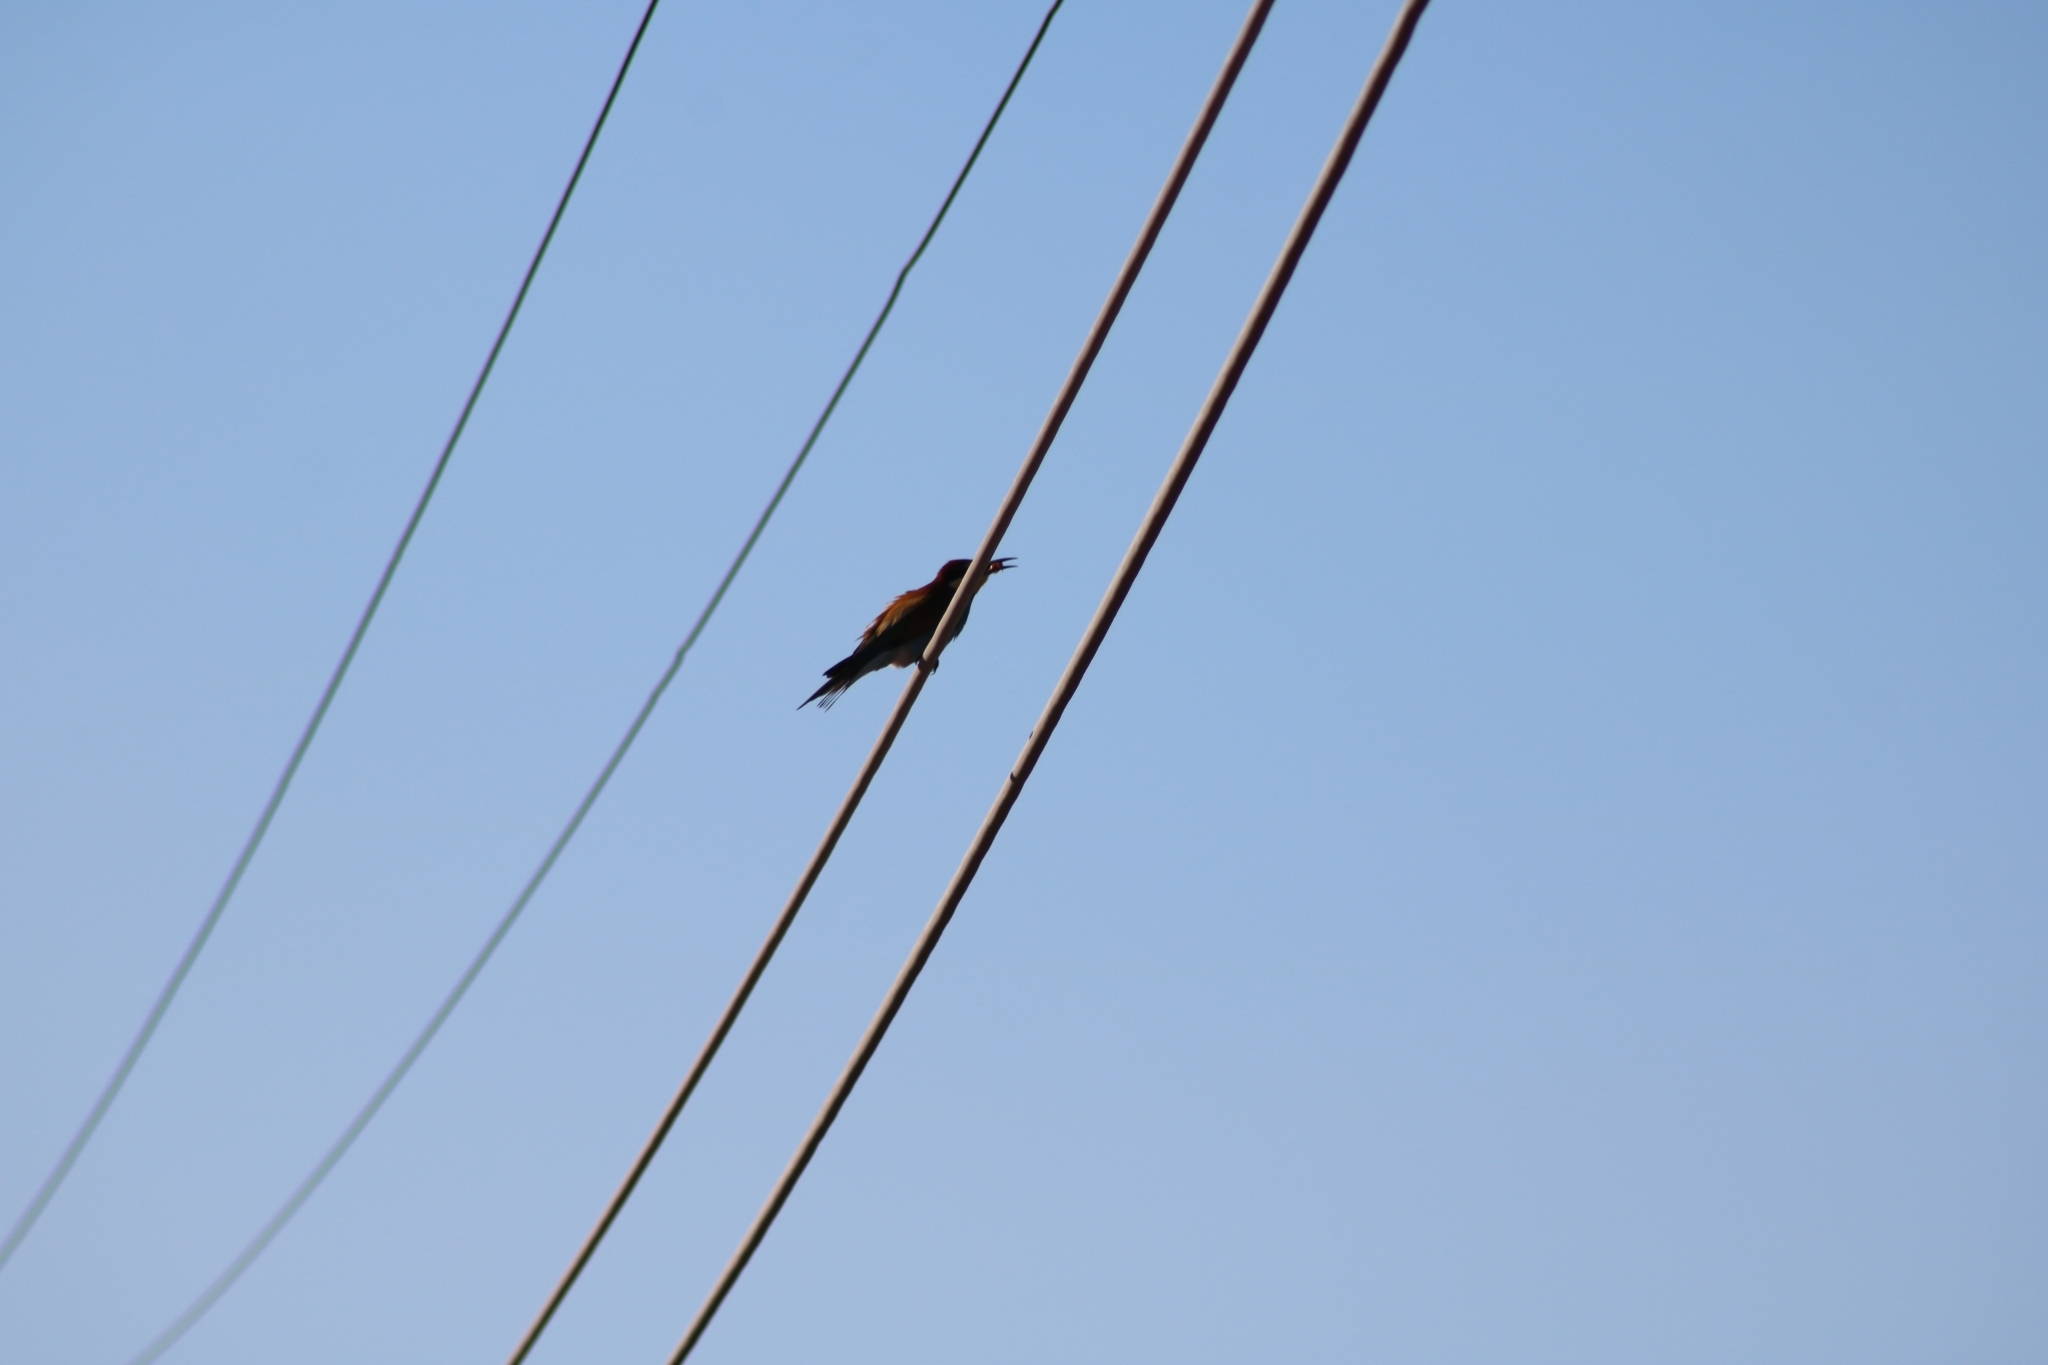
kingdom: Animalia
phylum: Chordata
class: Aves
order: Coraciiformes
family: Meropidae
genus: Merops
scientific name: Merops apiaster
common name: European bee-eater
